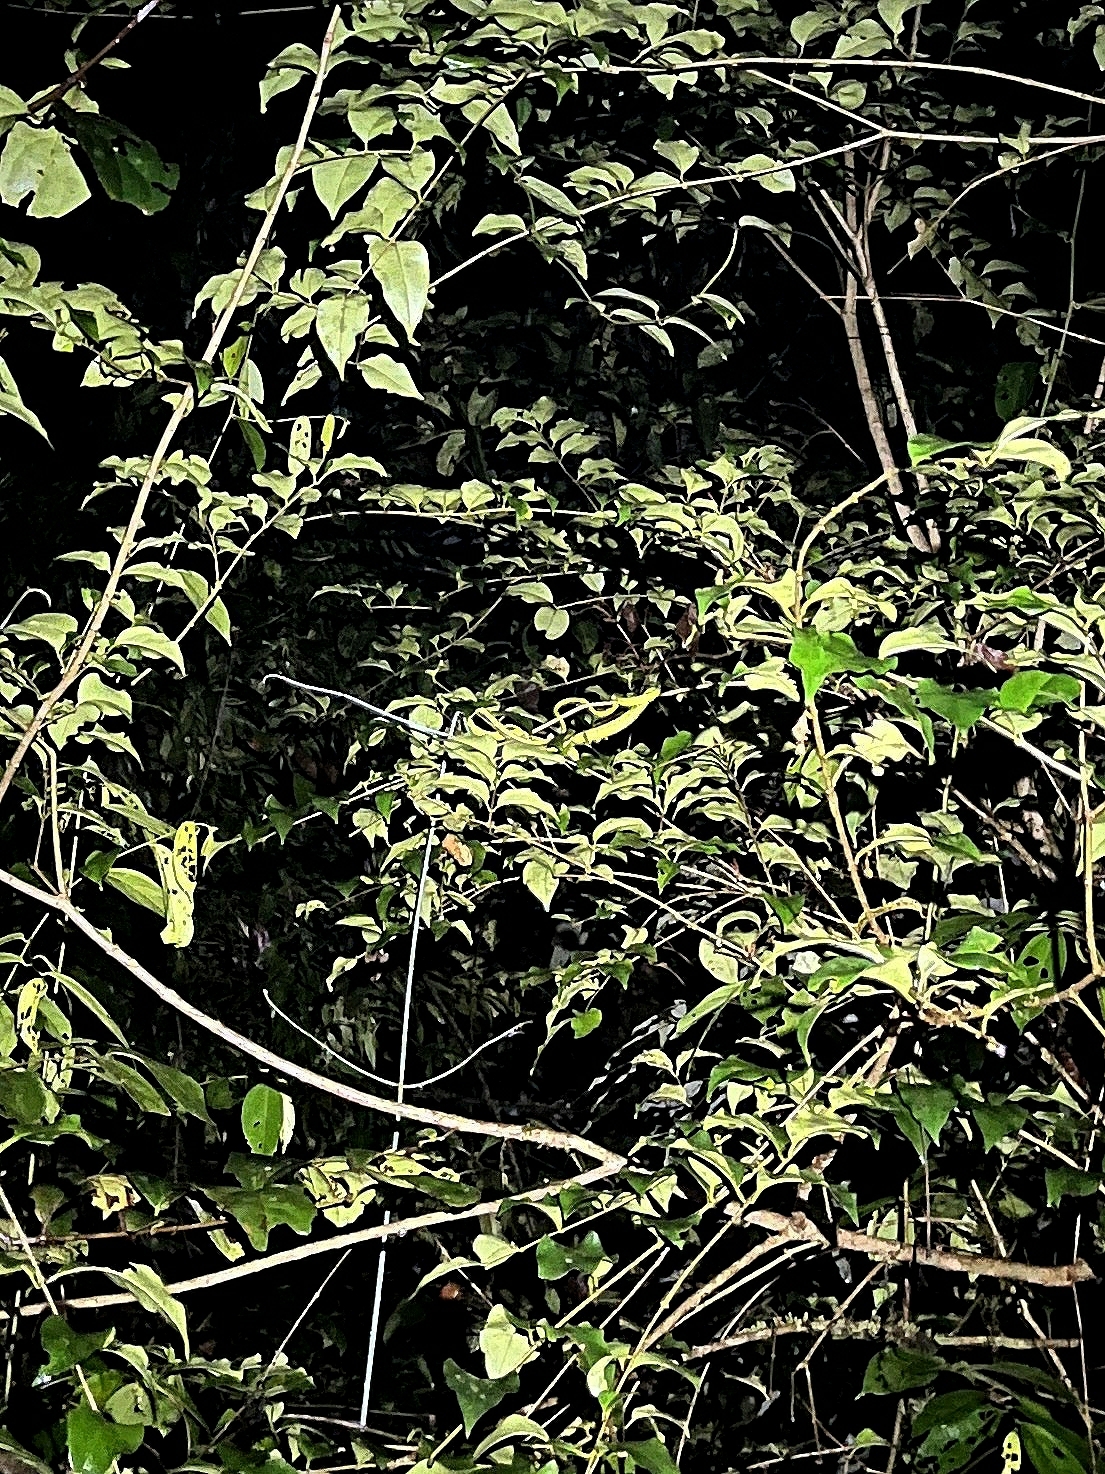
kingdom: Animalia
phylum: Chordata
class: Squamata
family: Colubridae
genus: Ahaetulla
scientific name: Ahaetulla farnsworthi
